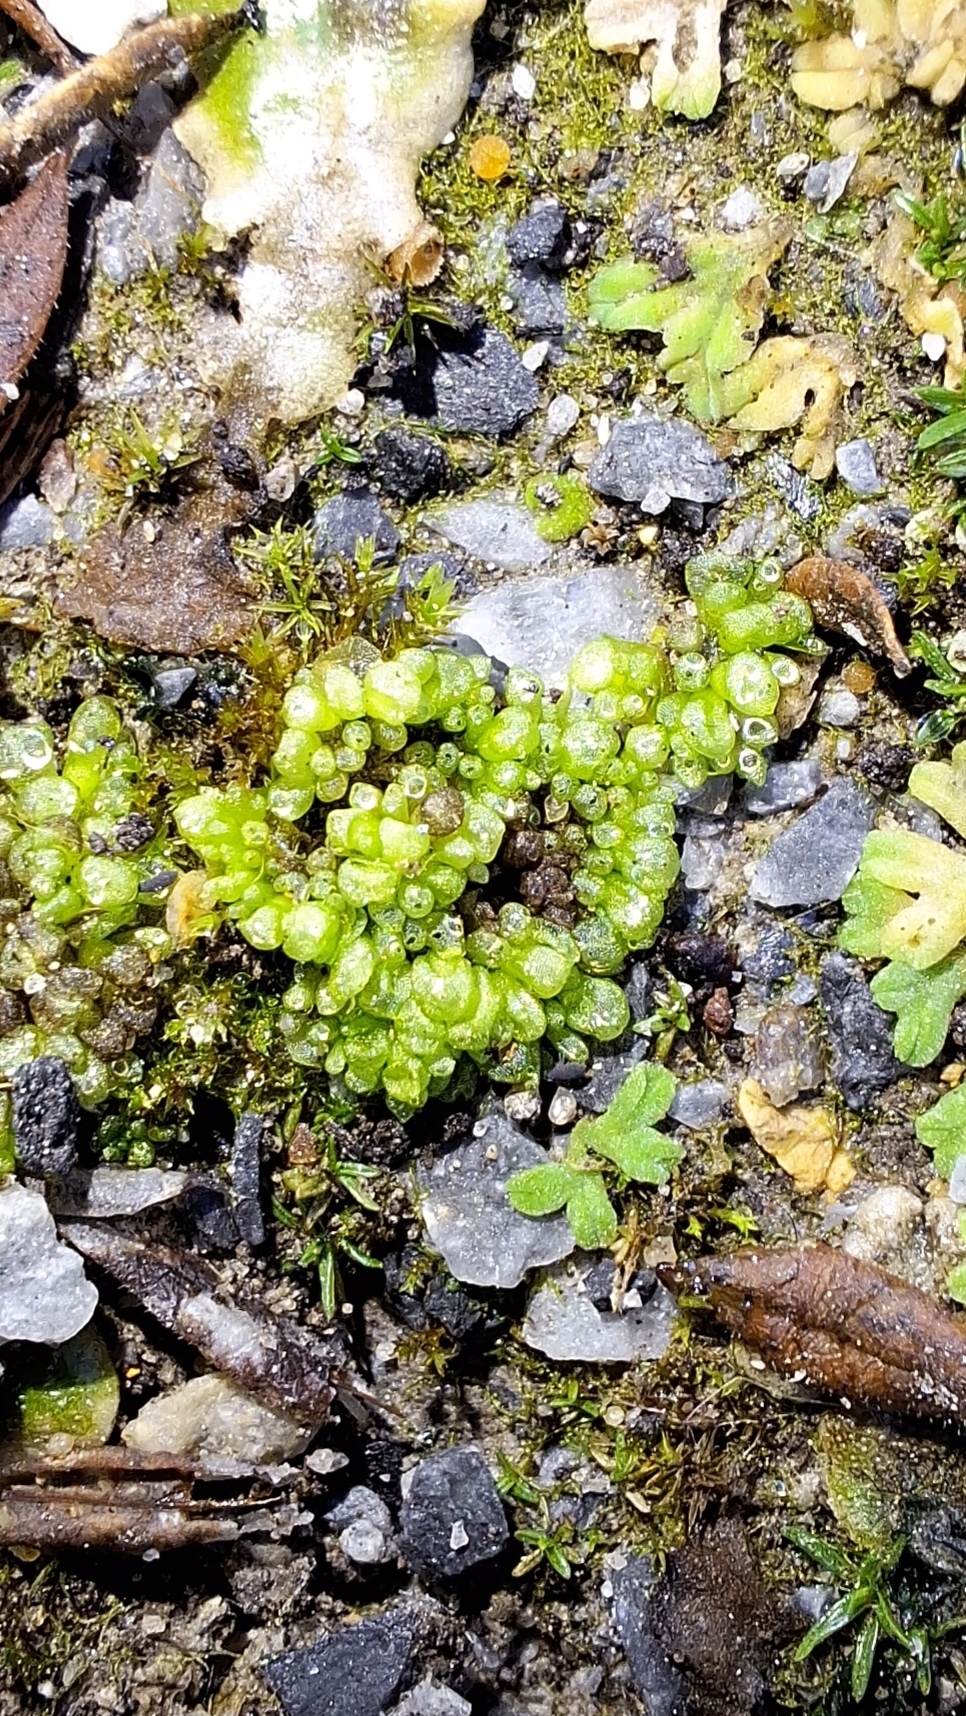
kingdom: Plantae
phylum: Marchantiophyta
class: Marchantiopsida
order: Sphaerocarpales
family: Sphaerocarpaceae
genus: Sphaerocarpos
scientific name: Sphaerocarpos texanus
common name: Texas balloonwort
